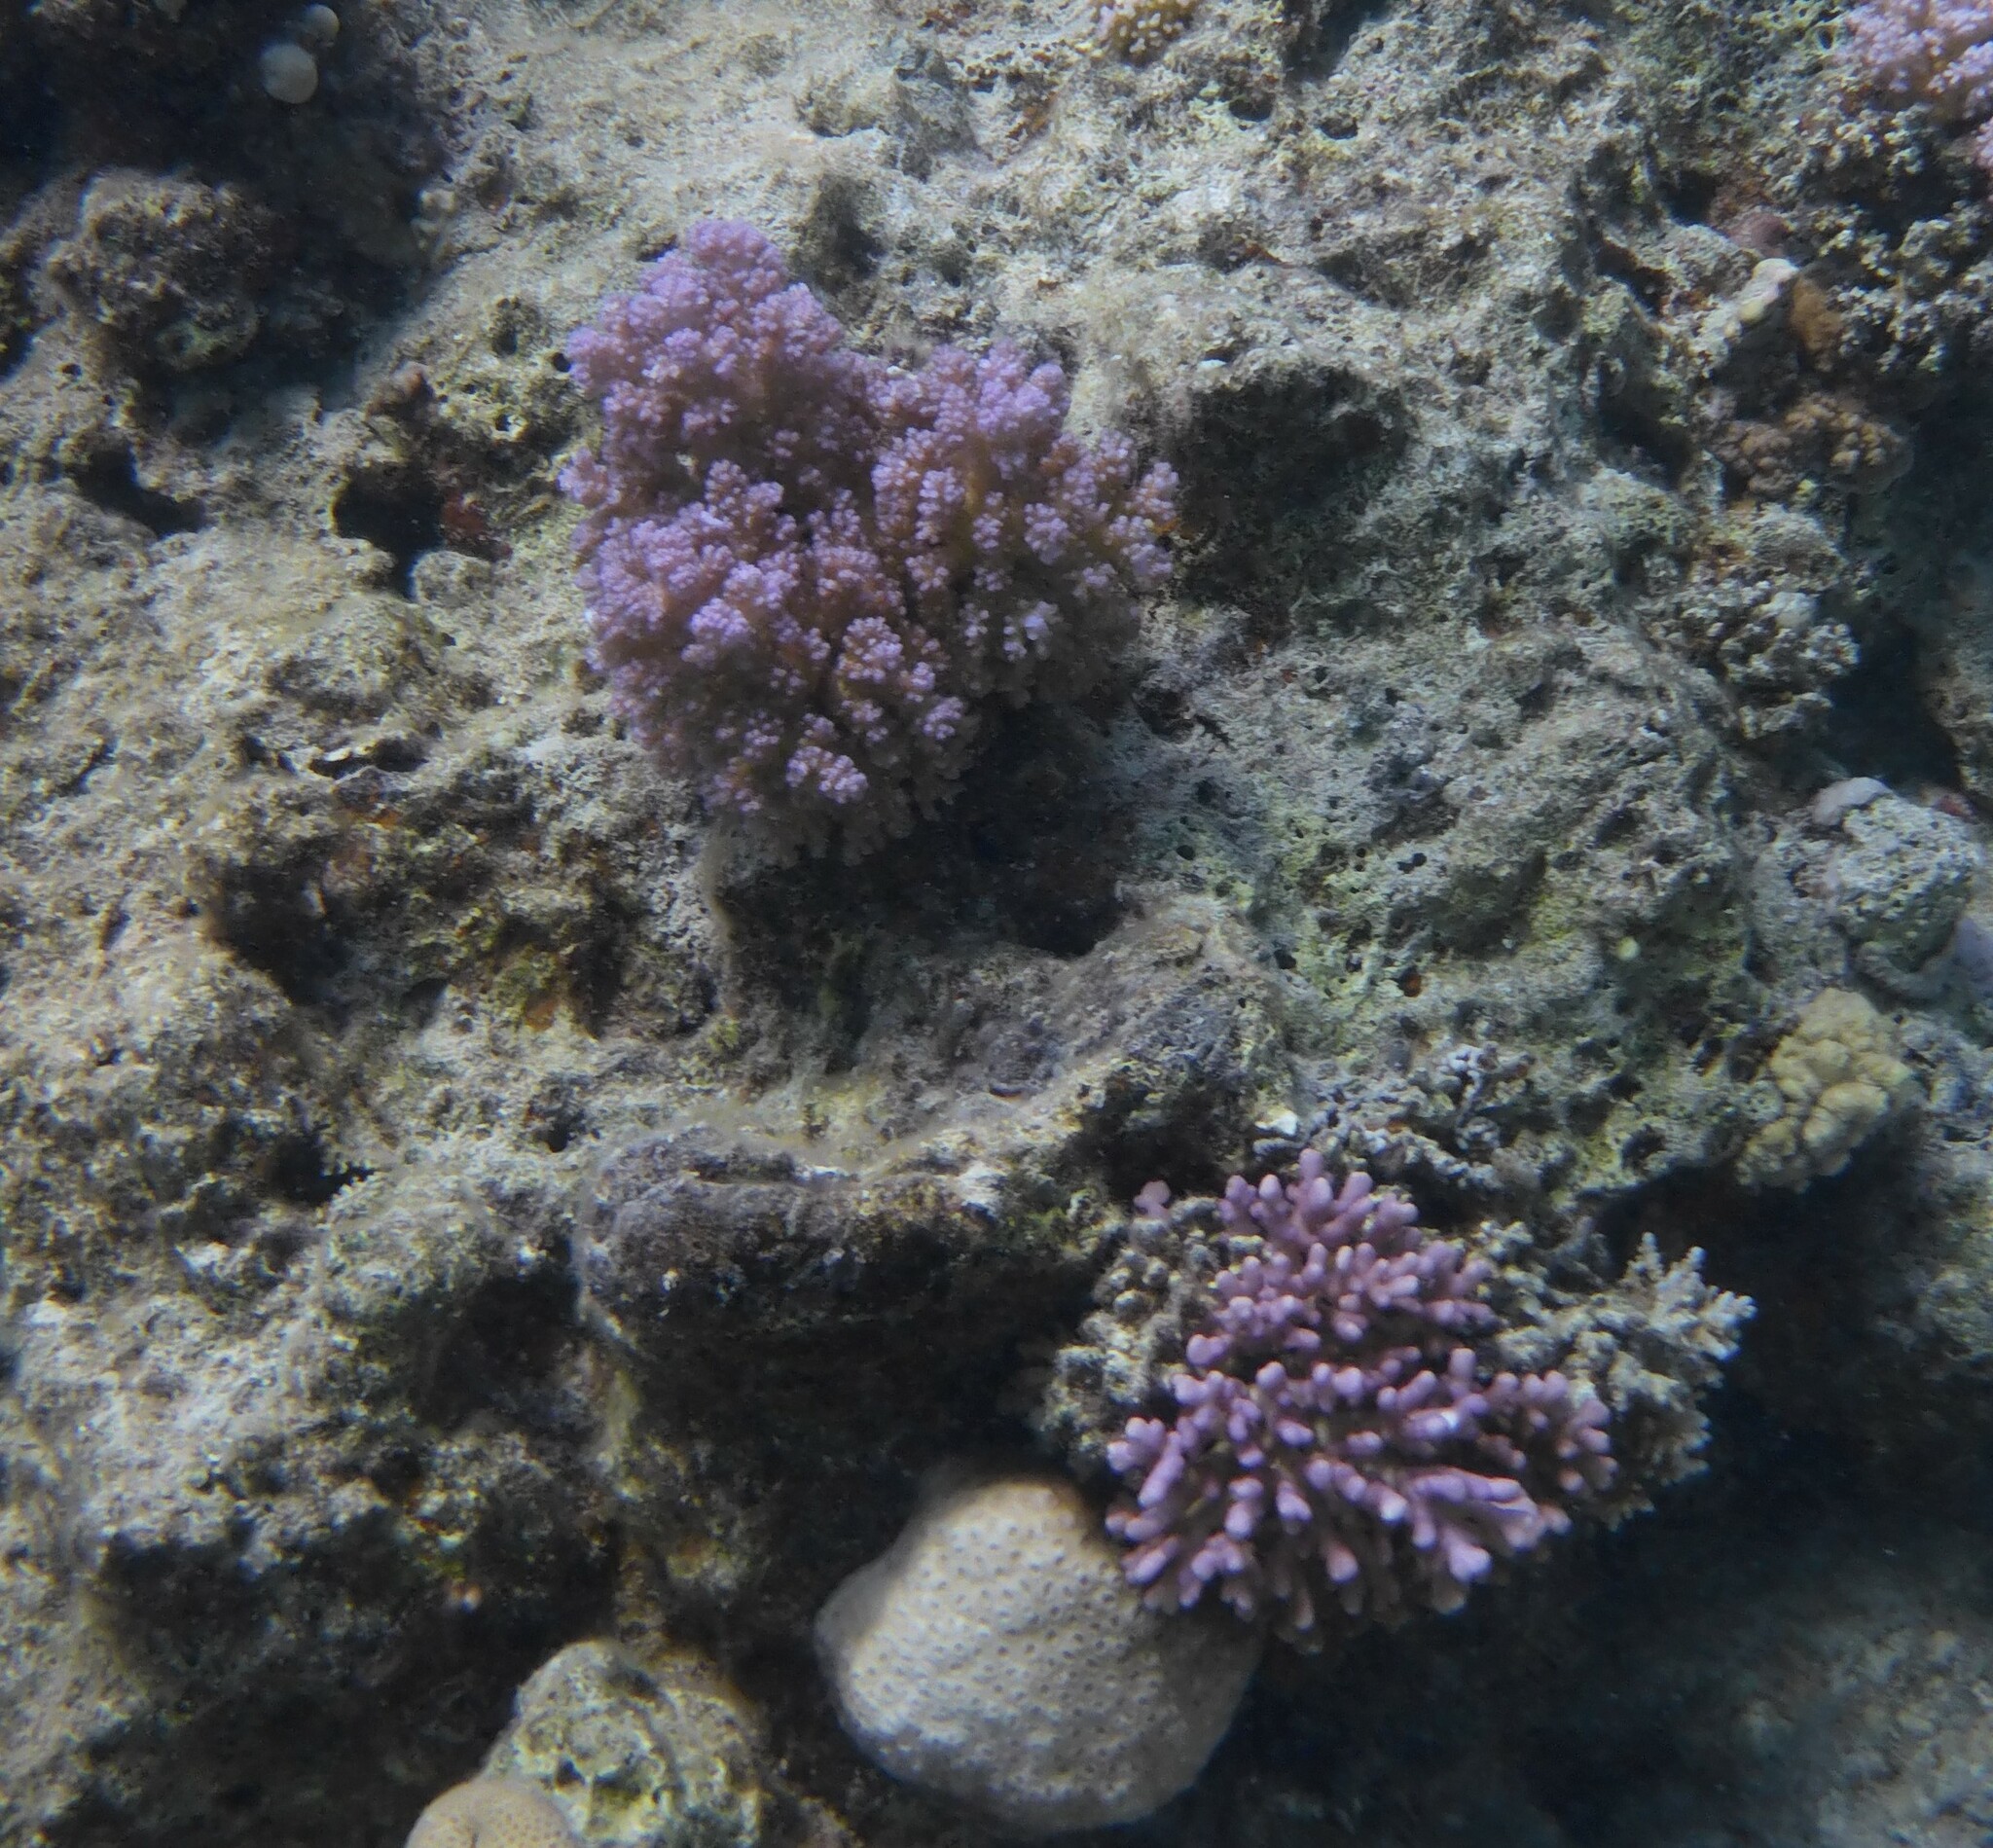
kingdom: Animalia
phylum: Cnidaria
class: Anthozoa
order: Scleractinia
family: Pocilloporidae
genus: Pocillopora
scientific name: Pocillopora verrucosa
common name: Cauliflower coral
